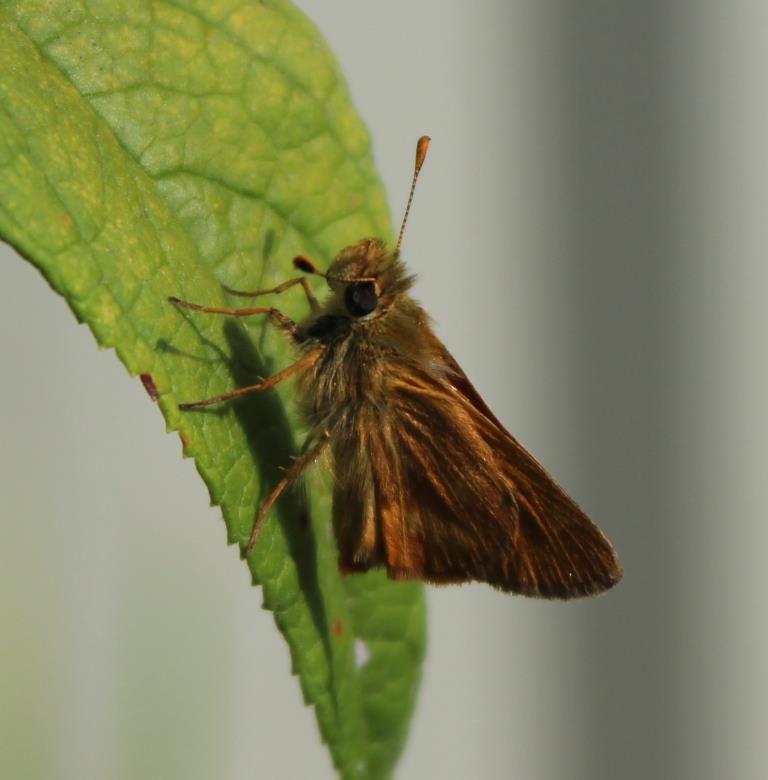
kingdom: Animalia
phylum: Arthropoda
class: Insecta
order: Lepidoptera
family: Hesperiidae
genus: Ochlodes
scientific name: Ochlodes sylvanoides
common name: Woodland skipper
